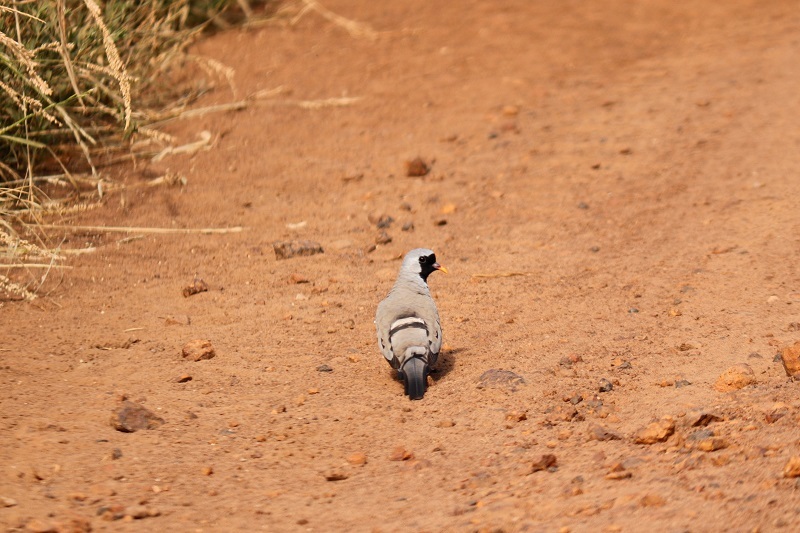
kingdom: Animalia
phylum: Chordata
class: Aves
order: Columbiformes
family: Columbidae
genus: Oena
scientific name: Oena capensis
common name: Namaqua dove
